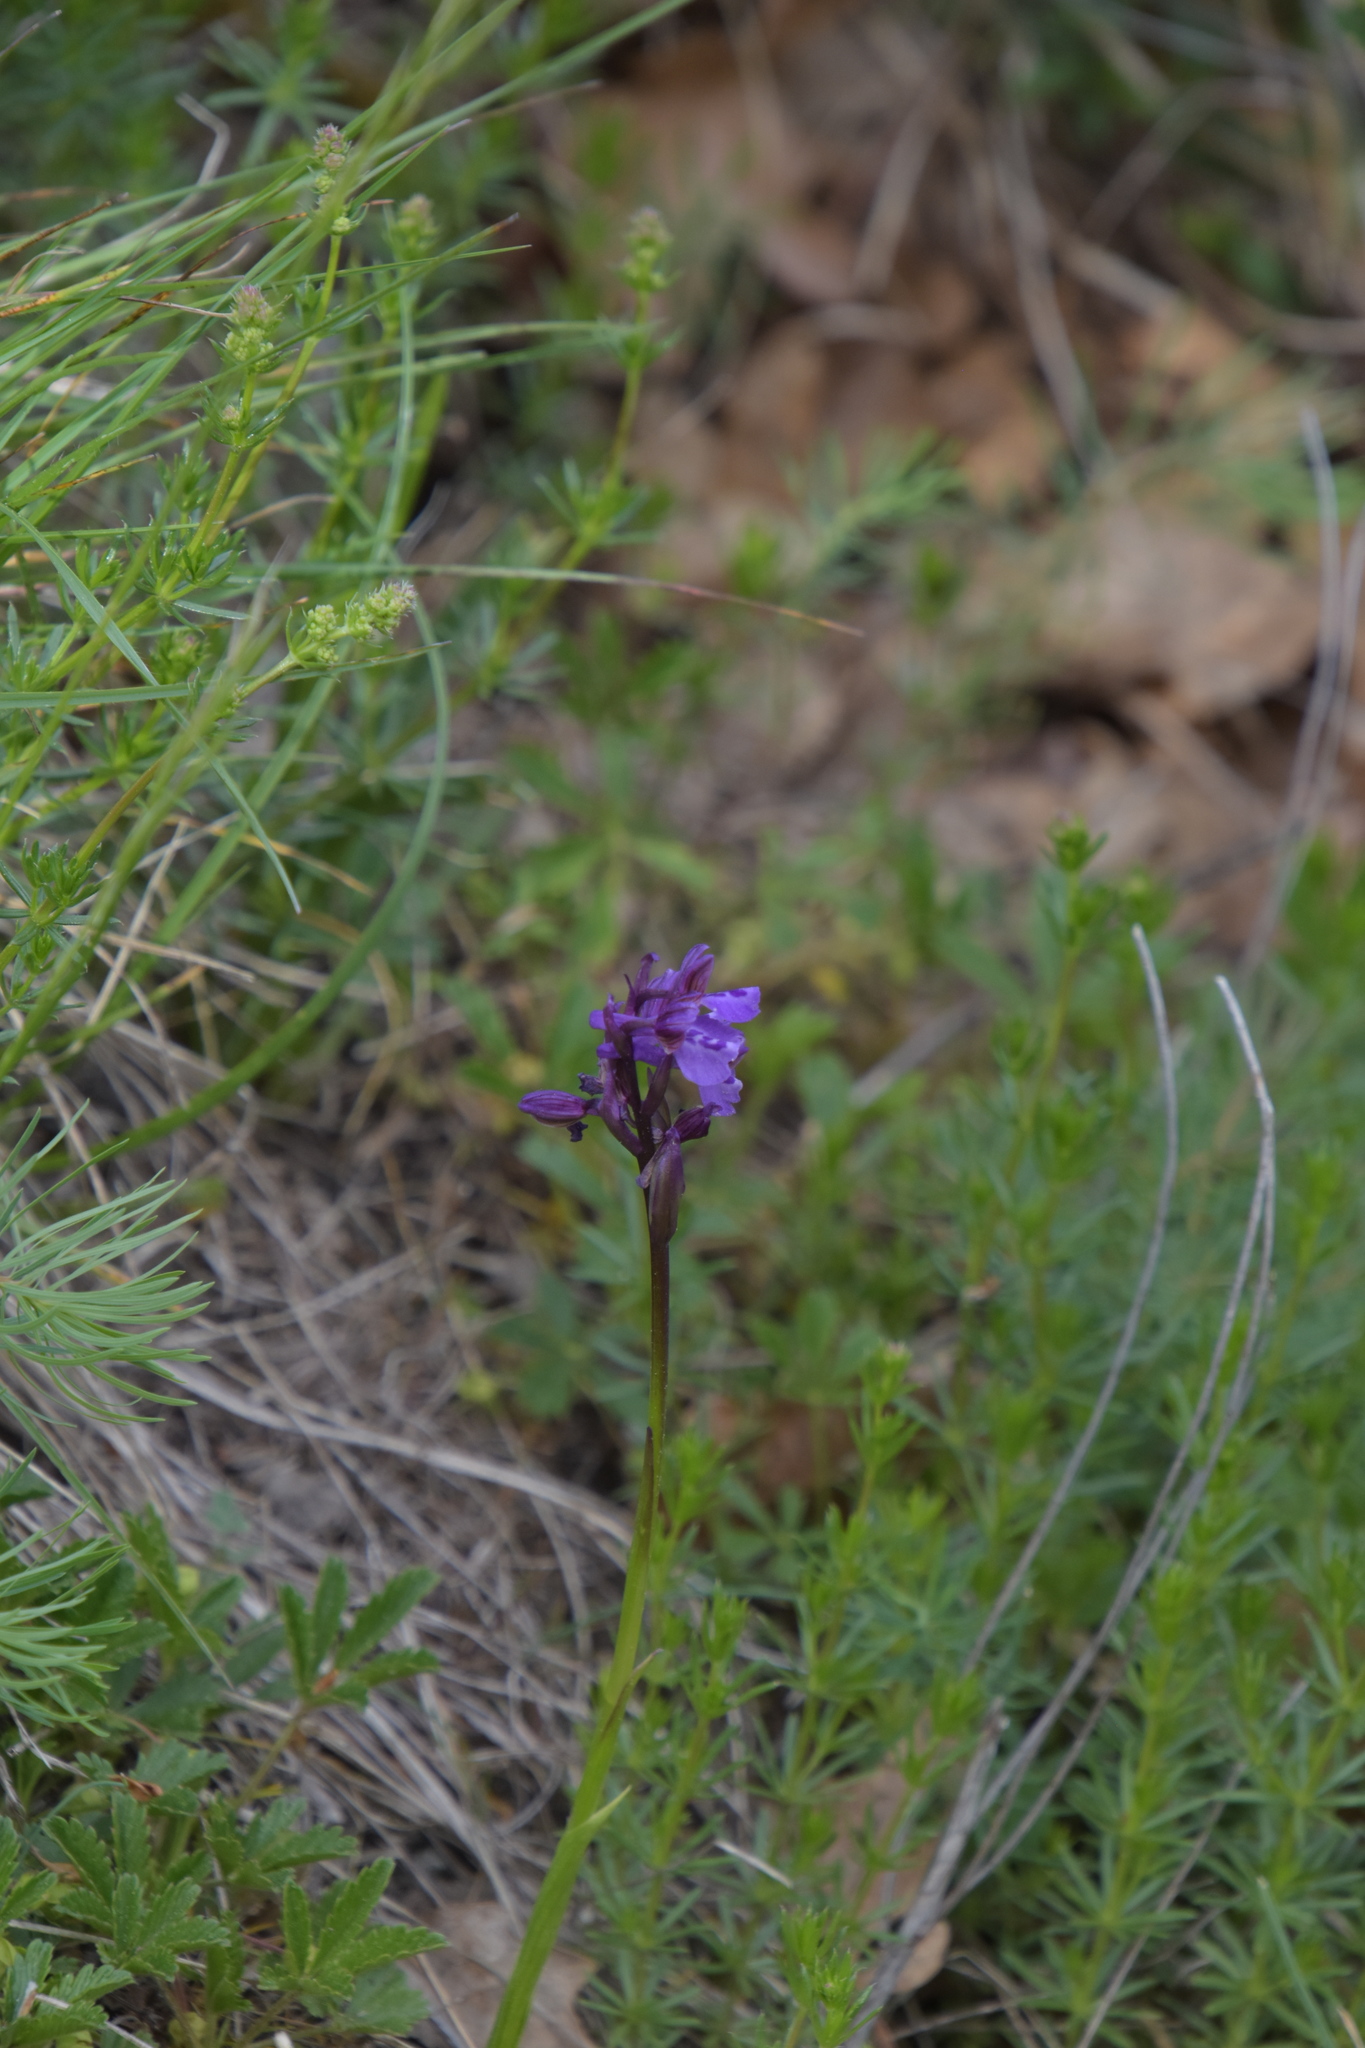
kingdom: Plantae
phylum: Tracheophyta
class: Liliopsida
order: Asparagales
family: Orchidaceae
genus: Anacamptis
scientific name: Anacamptis morio
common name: Green-winged orchid
